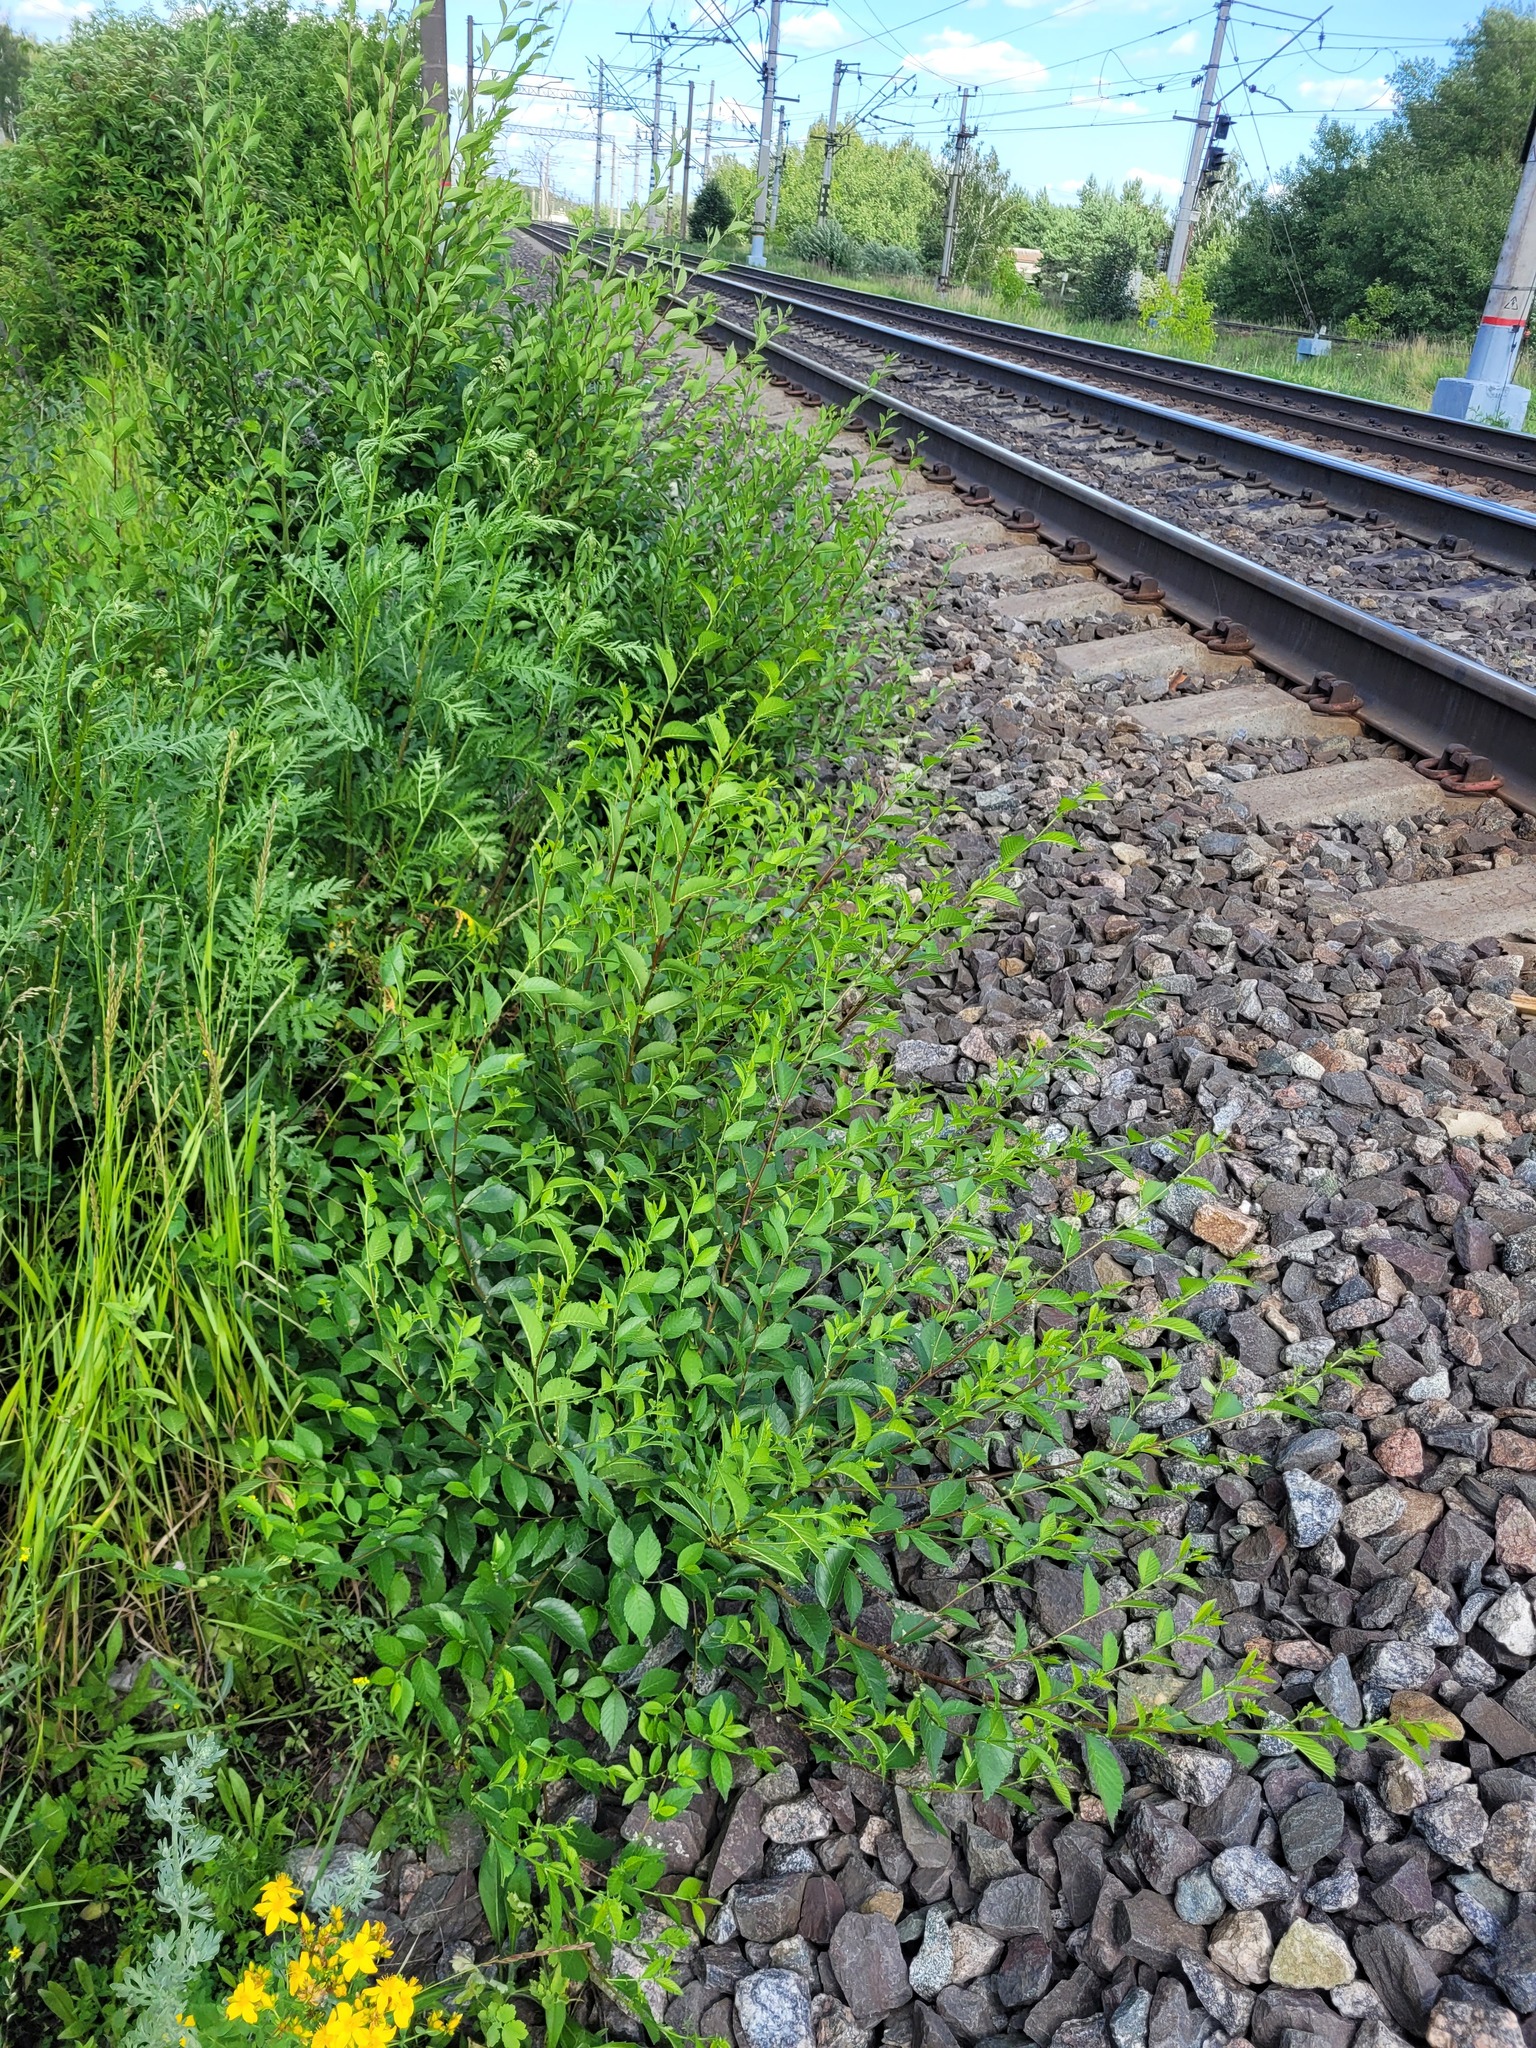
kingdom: Plantae
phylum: Tracheophyta
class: Magnoliopsida
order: Rosales
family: Ulmaceae
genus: Ulmus
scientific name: Ulmus pumila
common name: Siberian elm
